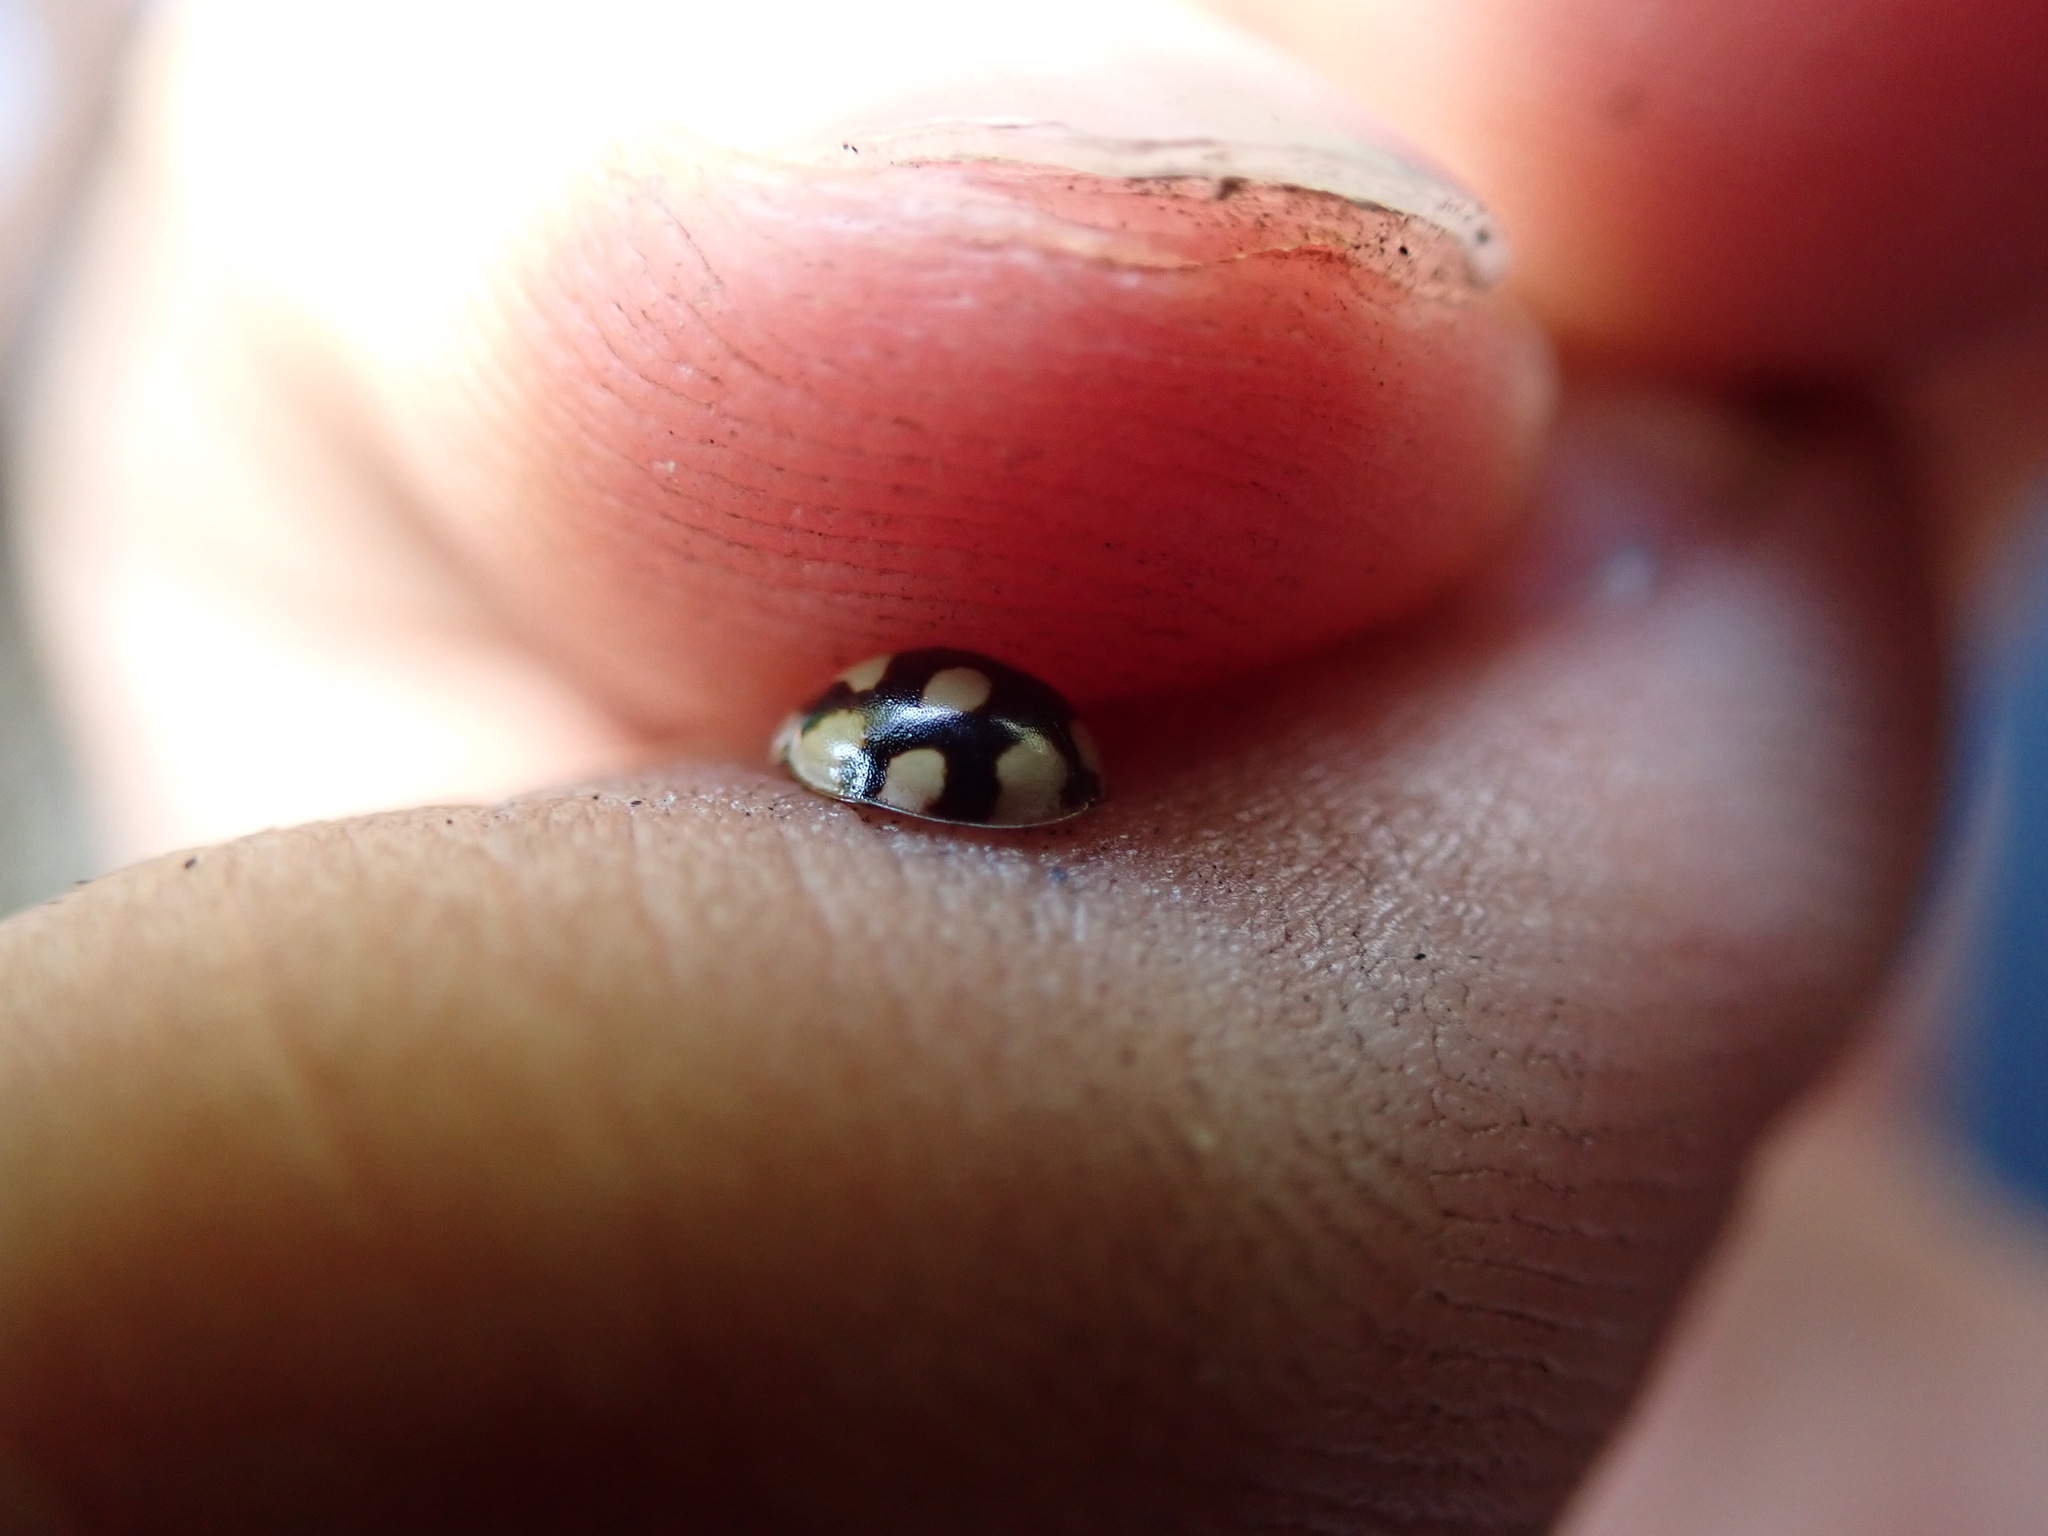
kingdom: Animalia
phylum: Arthropoda
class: Insecta
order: Coleoptera
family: Coccinellidae
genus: Adalia
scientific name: Adalia decempunctata
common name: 10-spot ladybird
